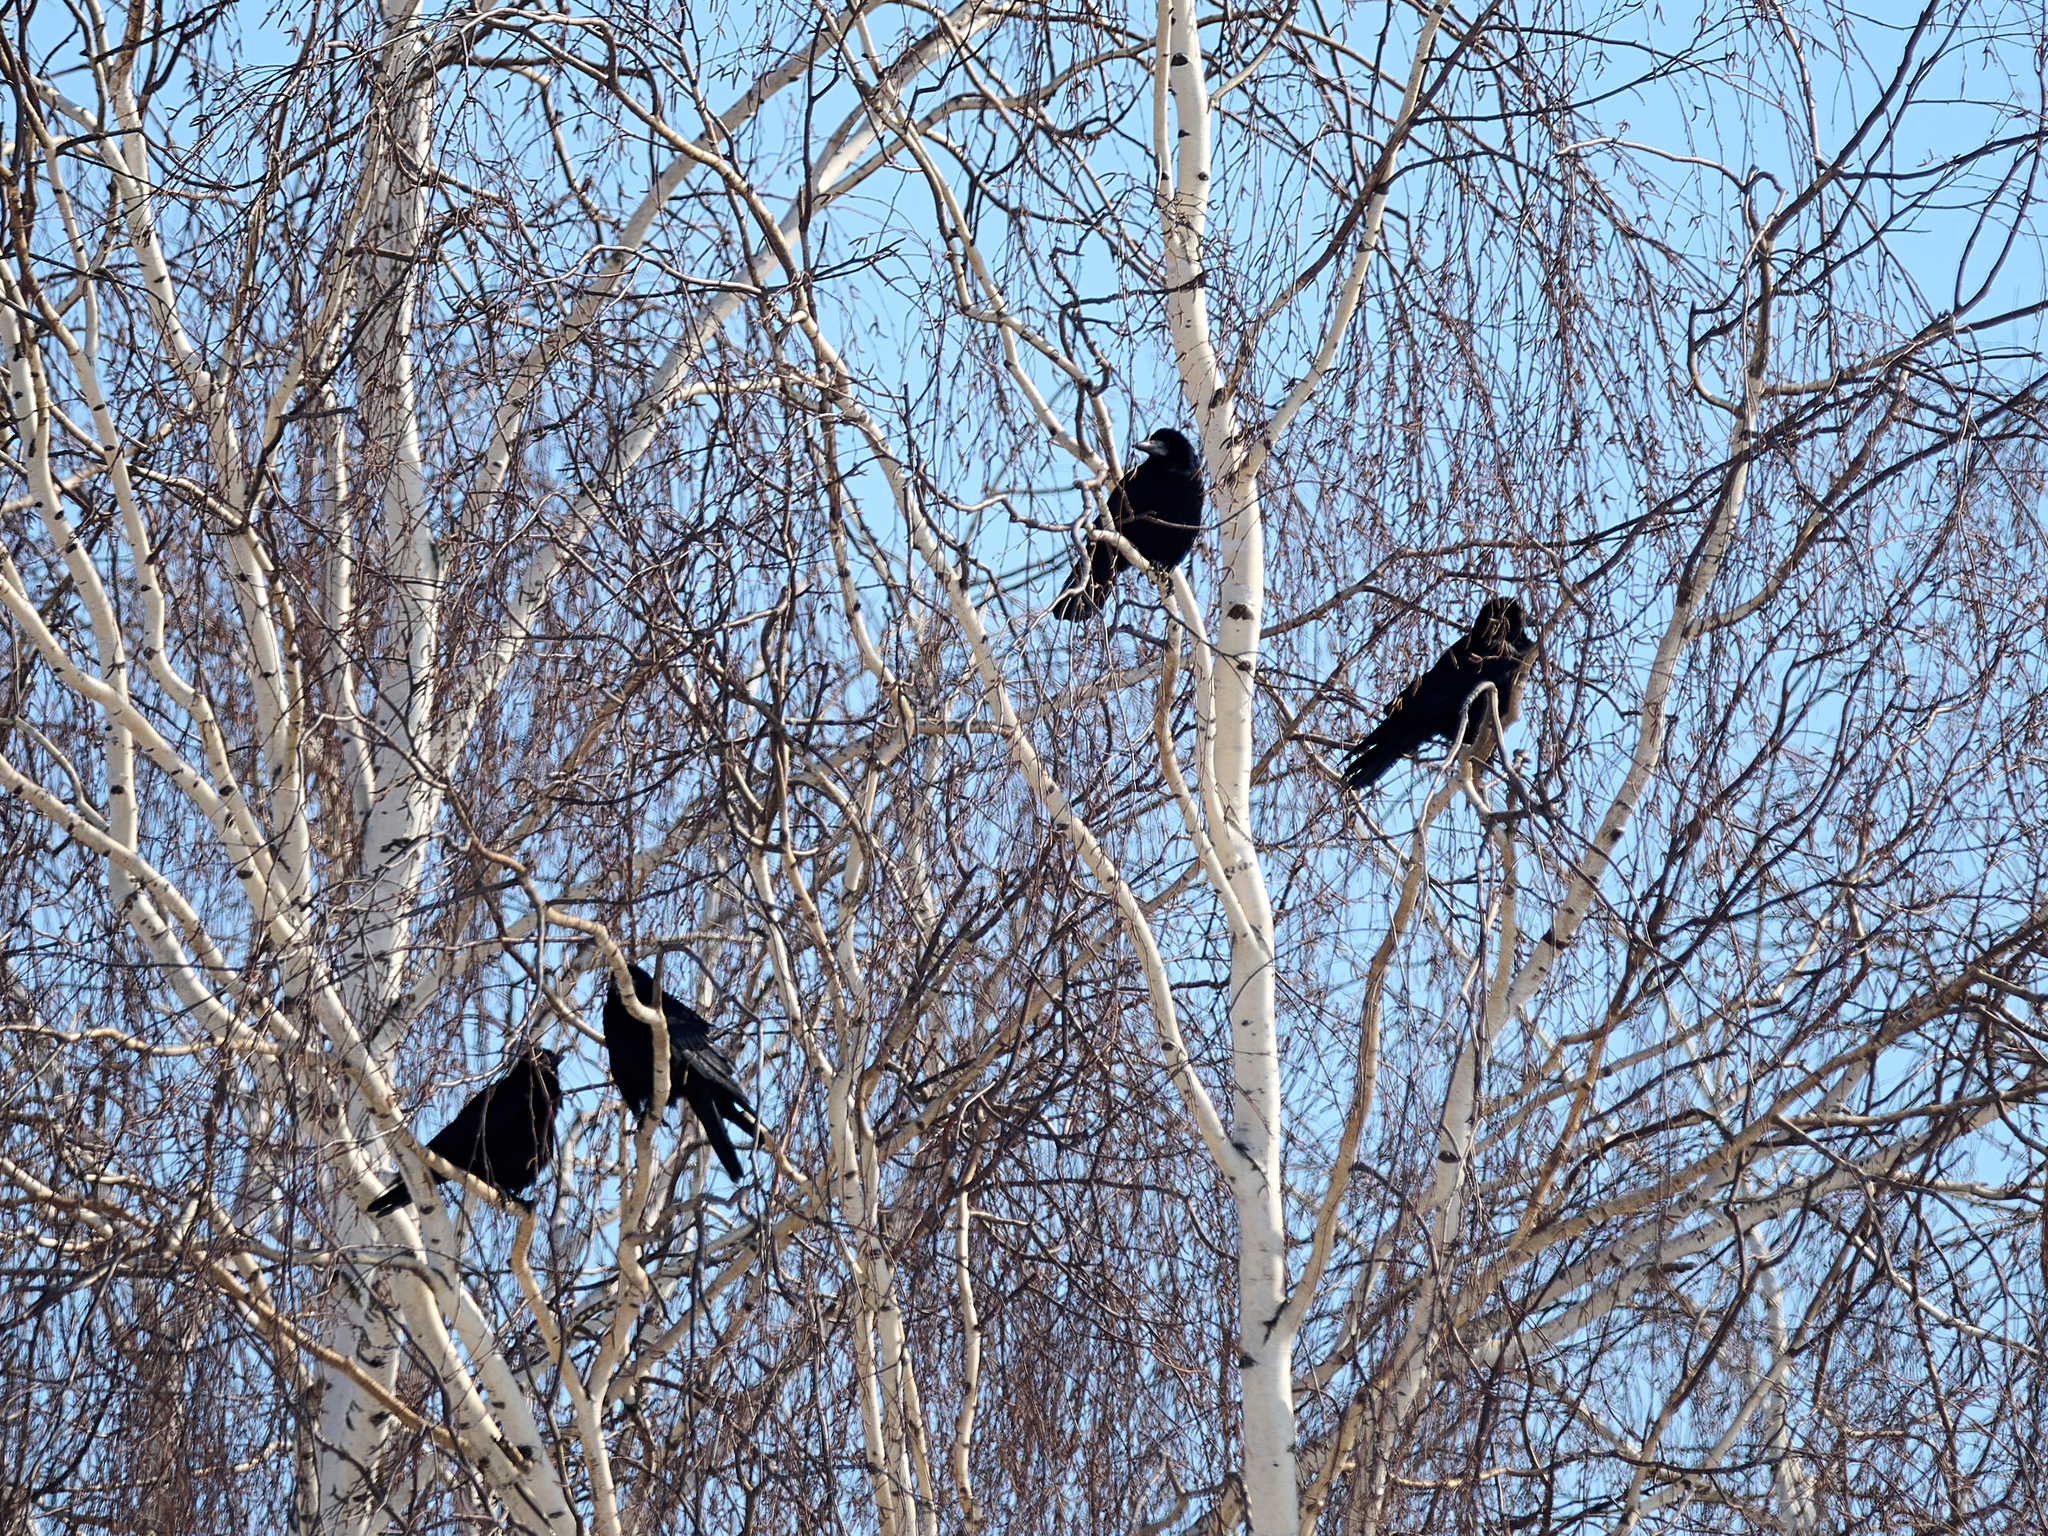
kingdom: Animalia
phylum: Chordata
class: Aves
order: Passeriformes
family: Corvidae
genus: Corvus
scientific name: Corvus frugilegus
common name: Rook
